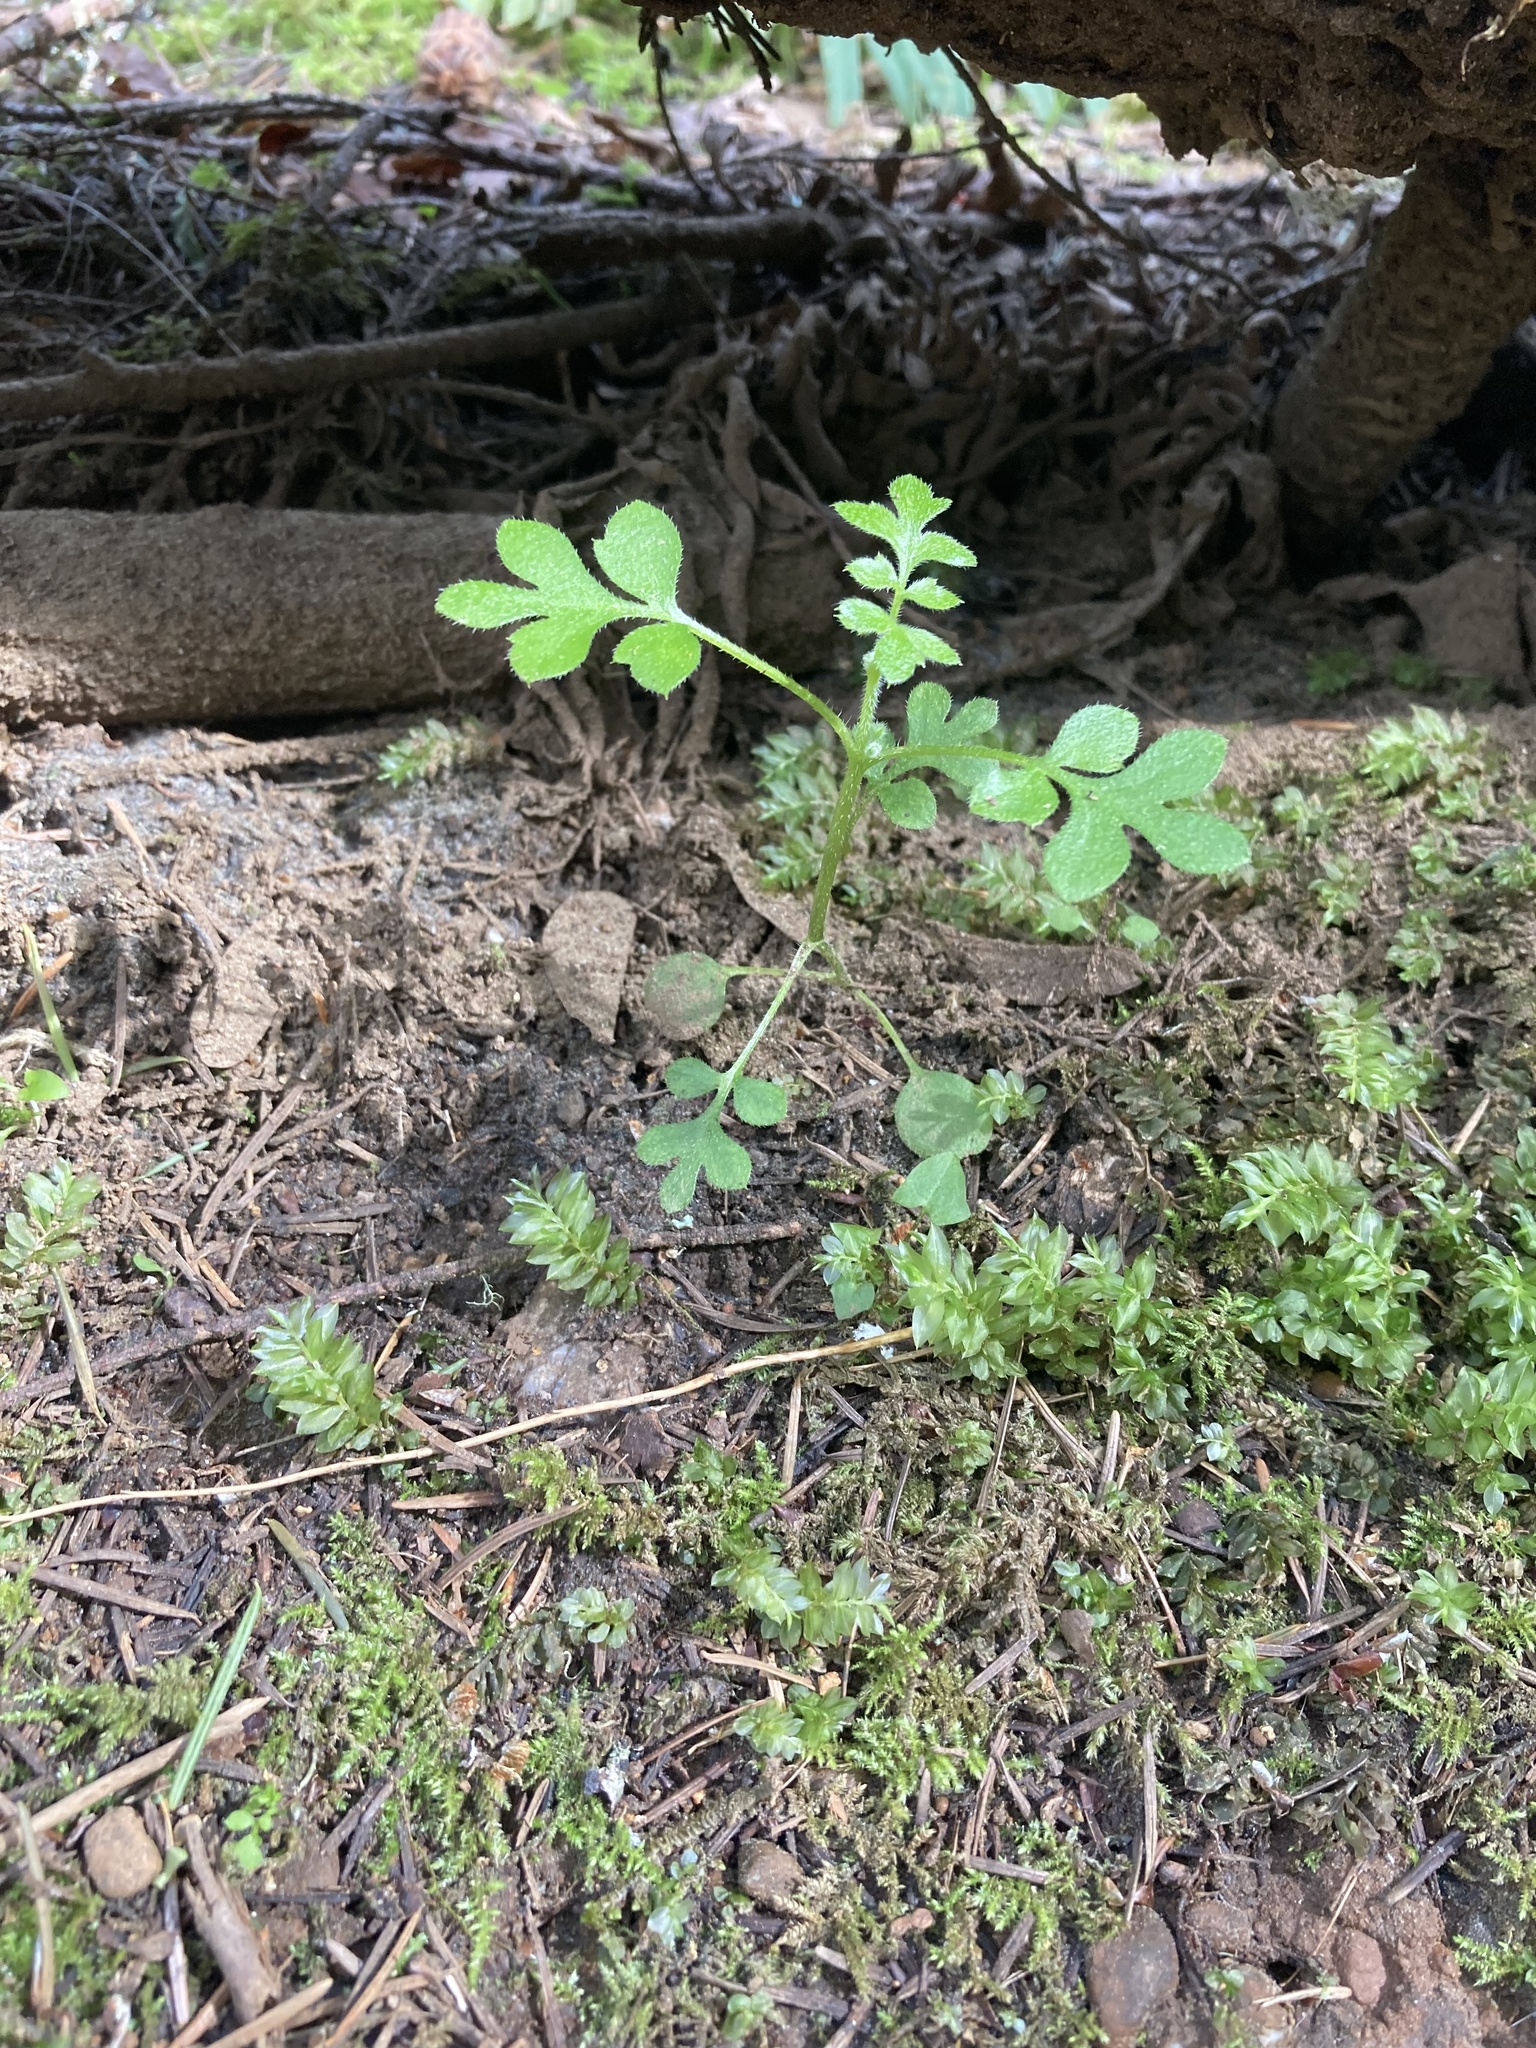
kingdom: Plantae
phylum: Tracheophyta
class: Magnoliopsida
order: Boraginales
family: Hydrophyllaceae
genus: Nemophila
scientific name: Nemophila parviflora
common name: Small-flowered baby-blue-eyes
